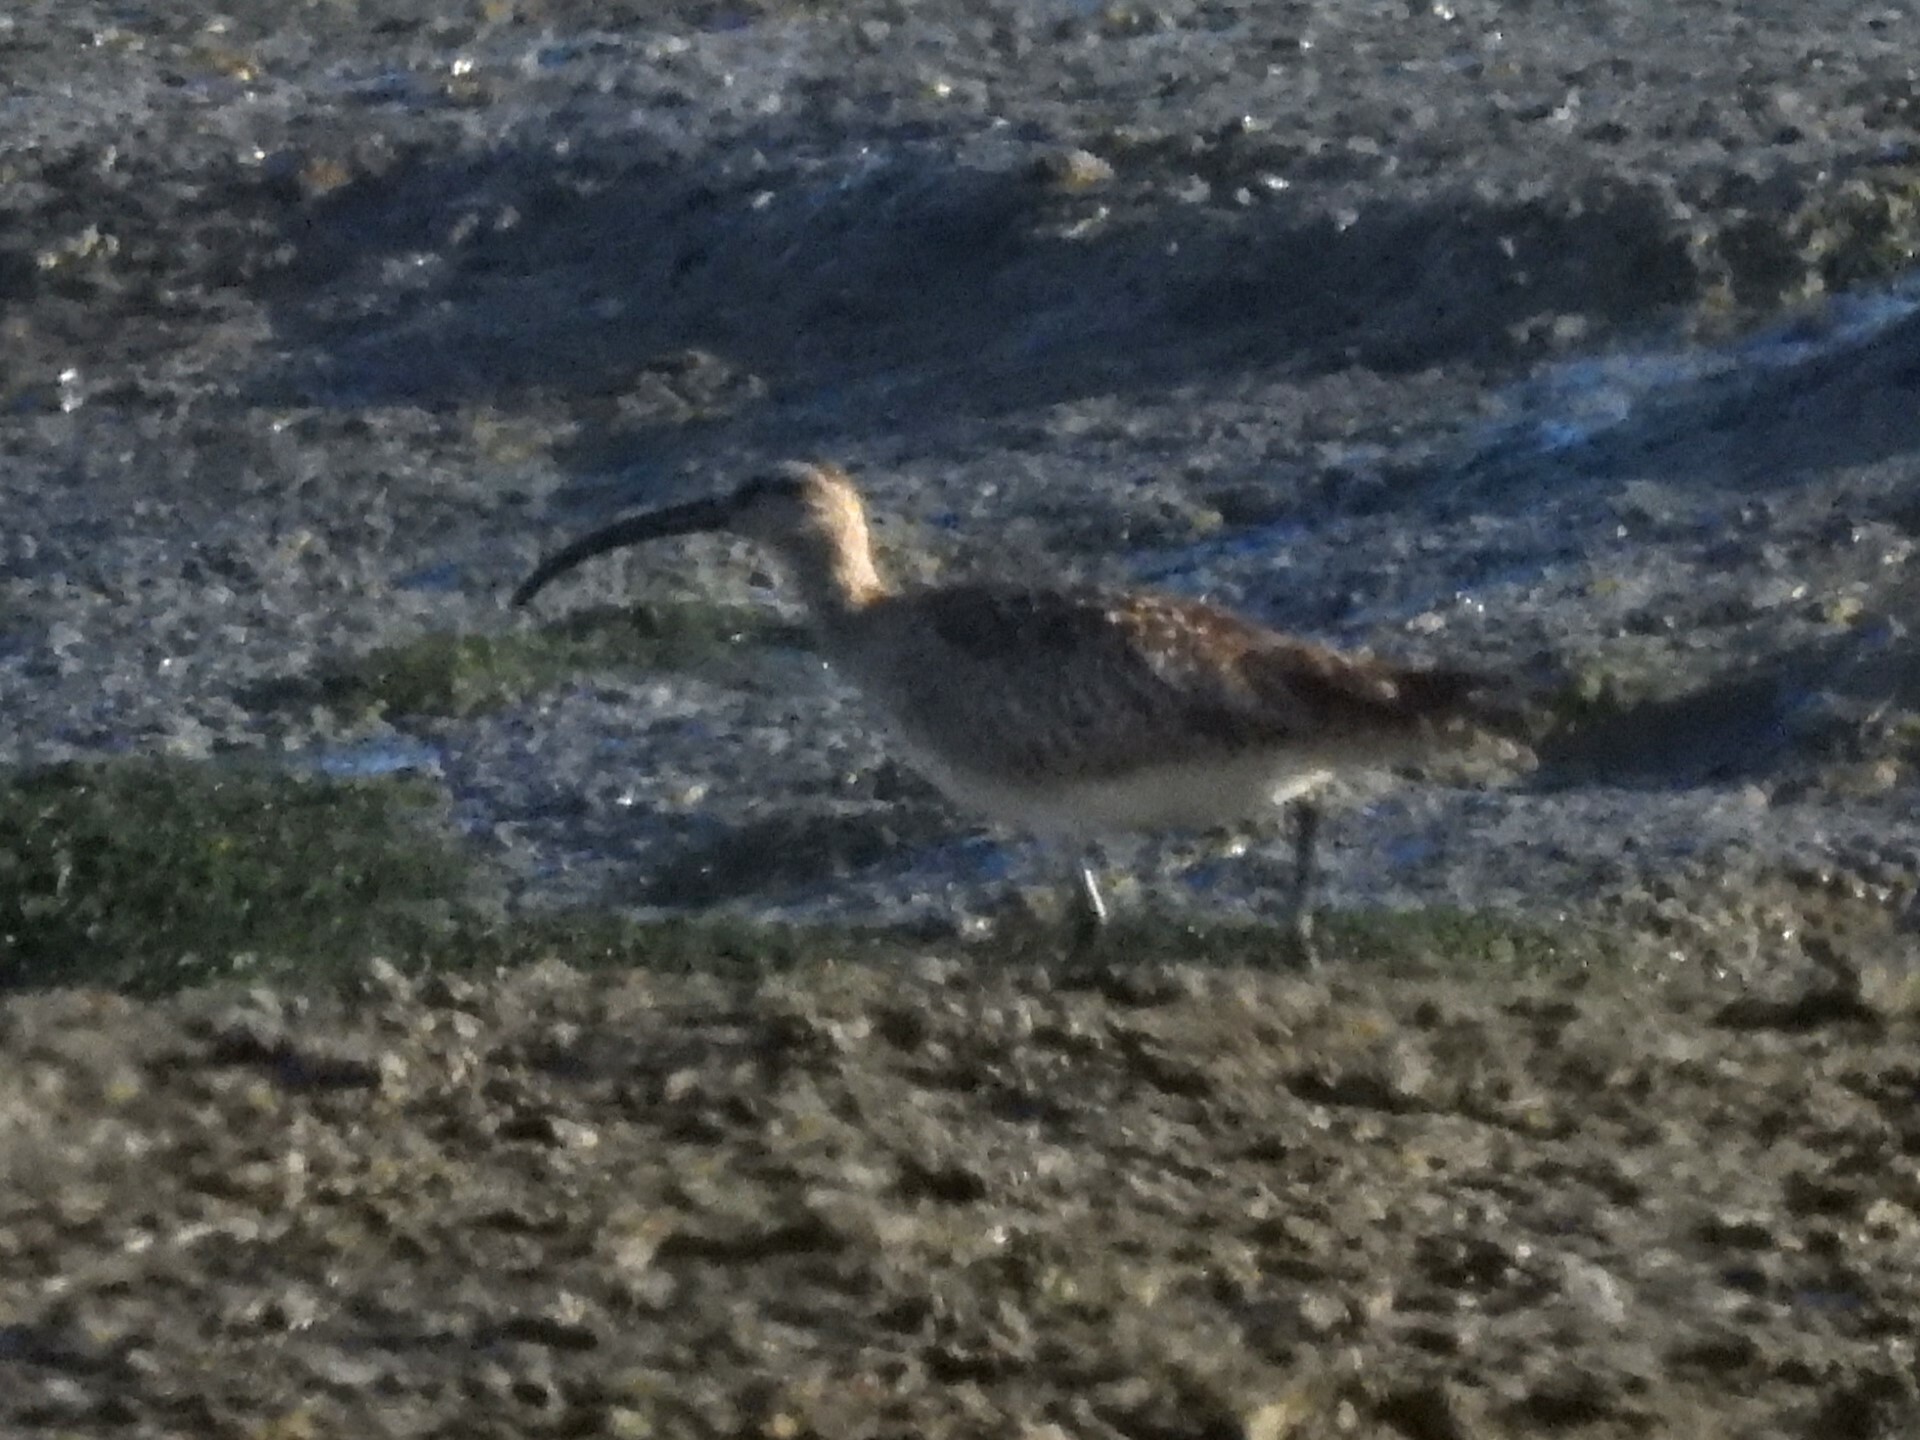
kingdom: Animalia
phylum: Chordata
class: Aves
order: Charadriiformes
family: Scolopacidae
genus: Numenius
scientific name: Numenius phaeopus
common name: Whimbrel
